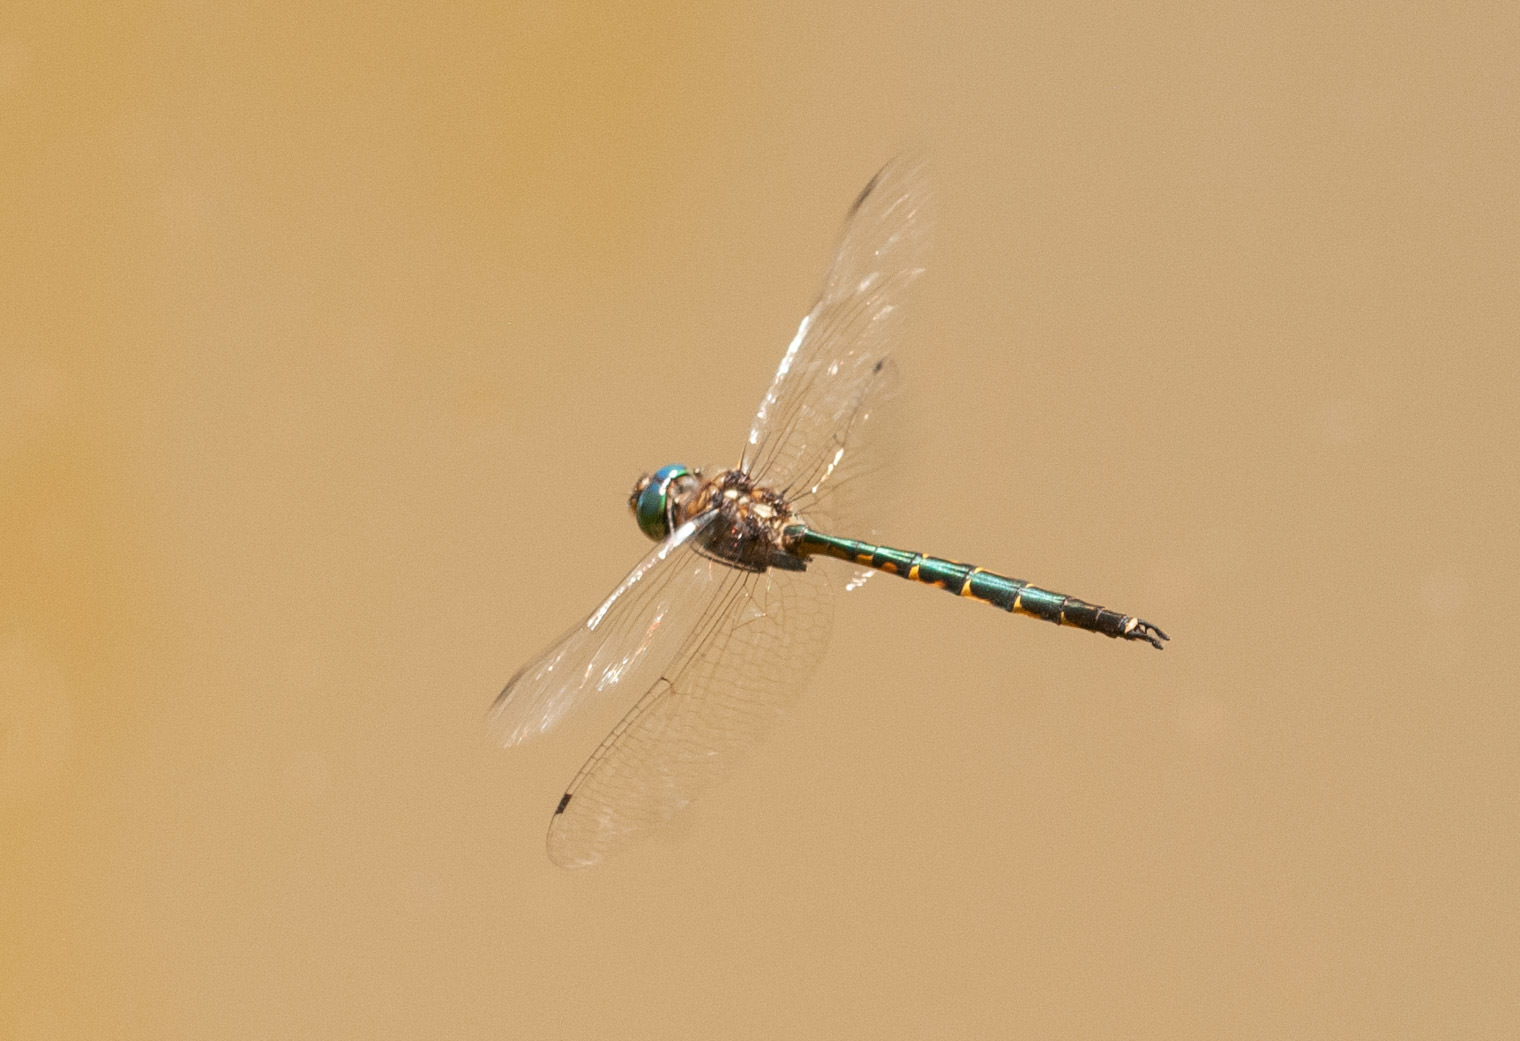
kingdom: Animalia
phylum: Arthropoda
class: Insecta
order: Odonata
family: Corduliidae
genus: Hemicordulia
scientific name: Hemicordulia australiae
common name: Sentry dragonfly
